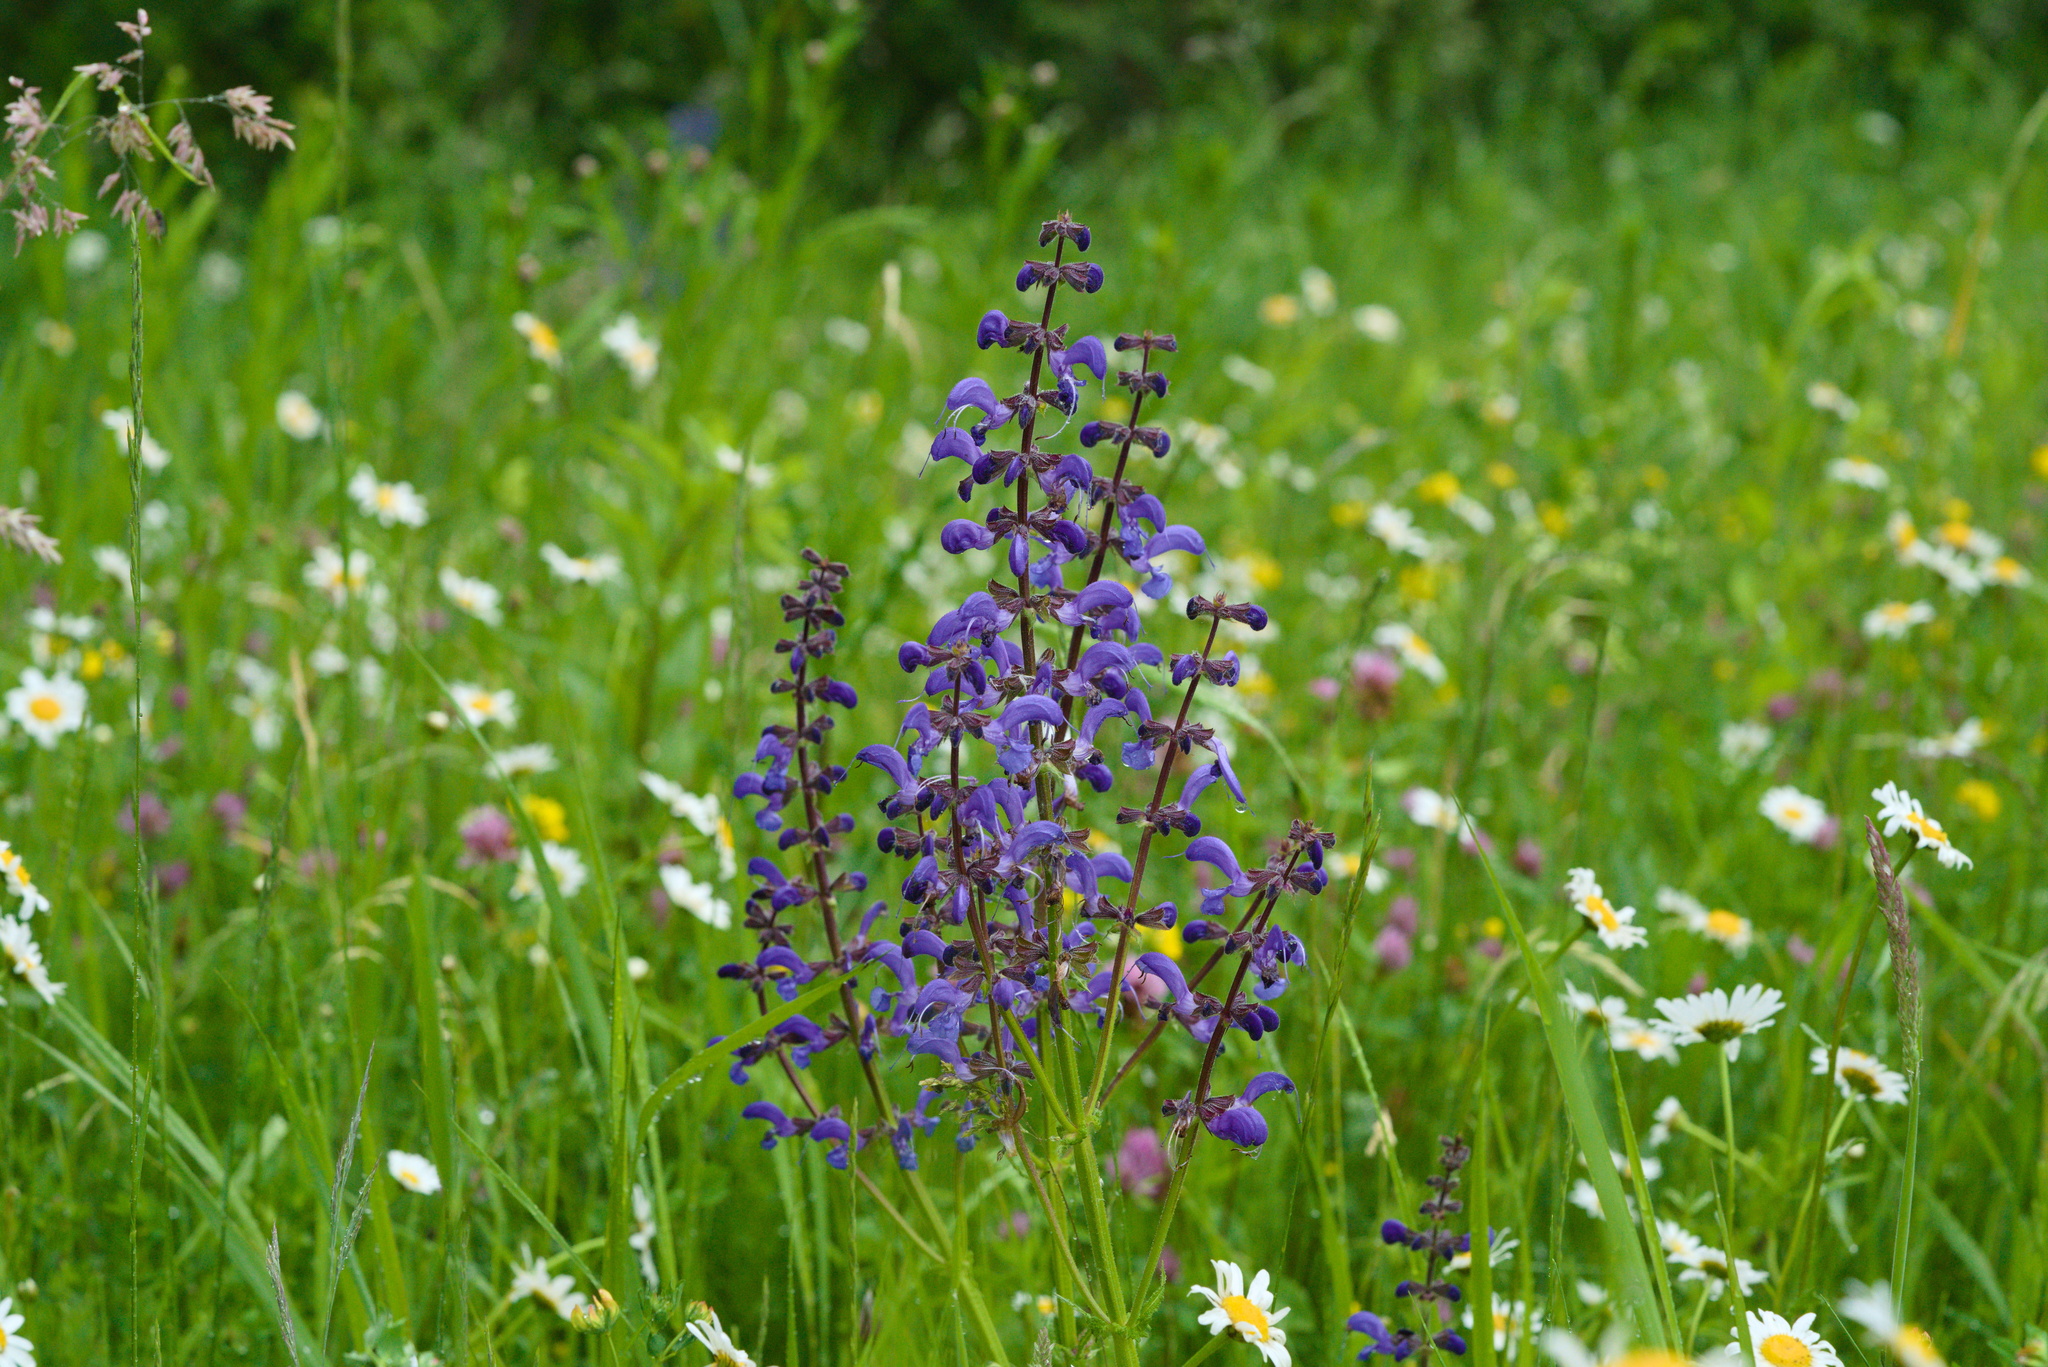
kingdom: Plantae
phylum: Tracheophyta
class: Magnoliopsida
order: Lamiales
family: Lamiaceae
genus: Salvia
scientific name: Salvia pratensis
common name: Meadow sage
